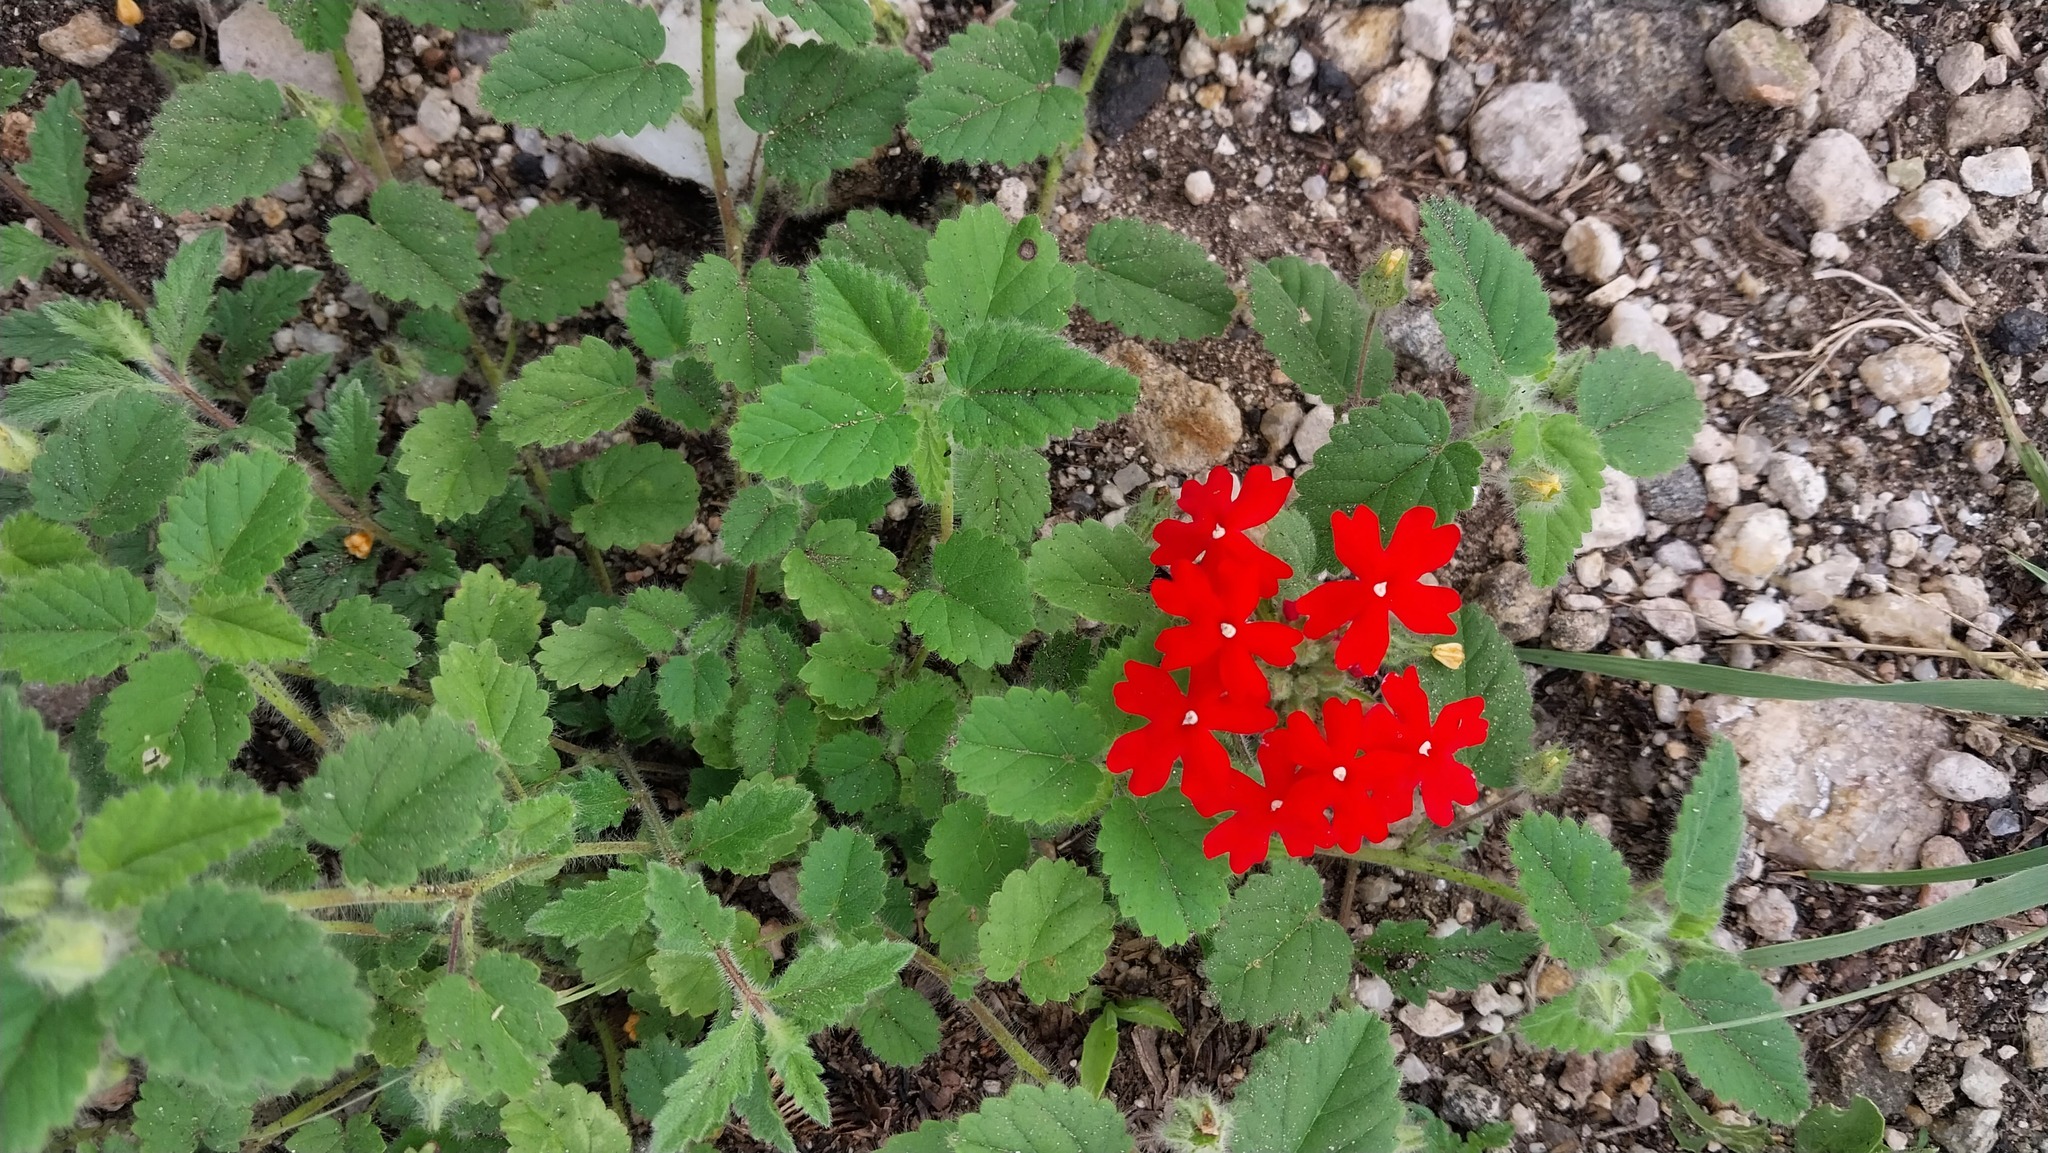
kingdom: Plantae
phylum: Tracheophyta
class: Magnoliopsida
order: Lamiales
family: Verbenaceae
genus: Verbena
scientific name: Verbena peruviana
